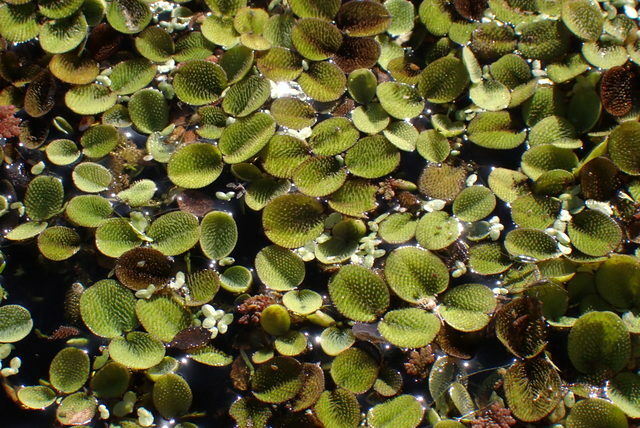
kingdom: Plantae
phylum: Tracheophyta
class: Polypodiopsida
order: Salviniales
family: Salviniaceae
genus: Salvinia
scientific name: Salvinia minima
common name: Water spangles
